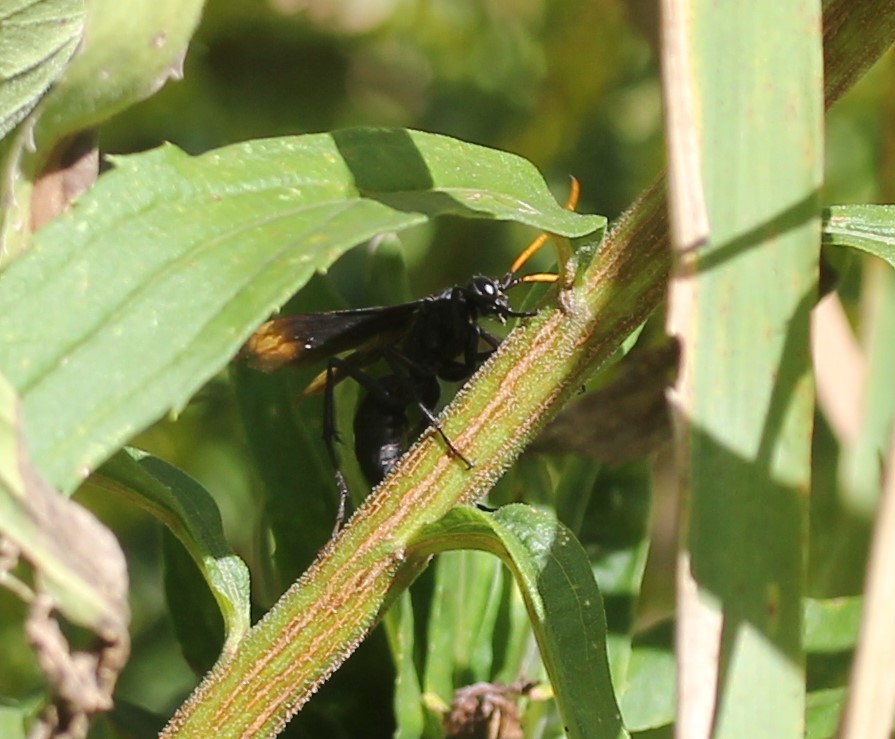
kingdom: Animalia
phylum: Arthropoda
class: Insecta
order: Hymenoptera
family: Pompilidae
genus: Entypus
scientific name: Entypus unifasciatus
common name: Eastern tawny-horned spider wasp
